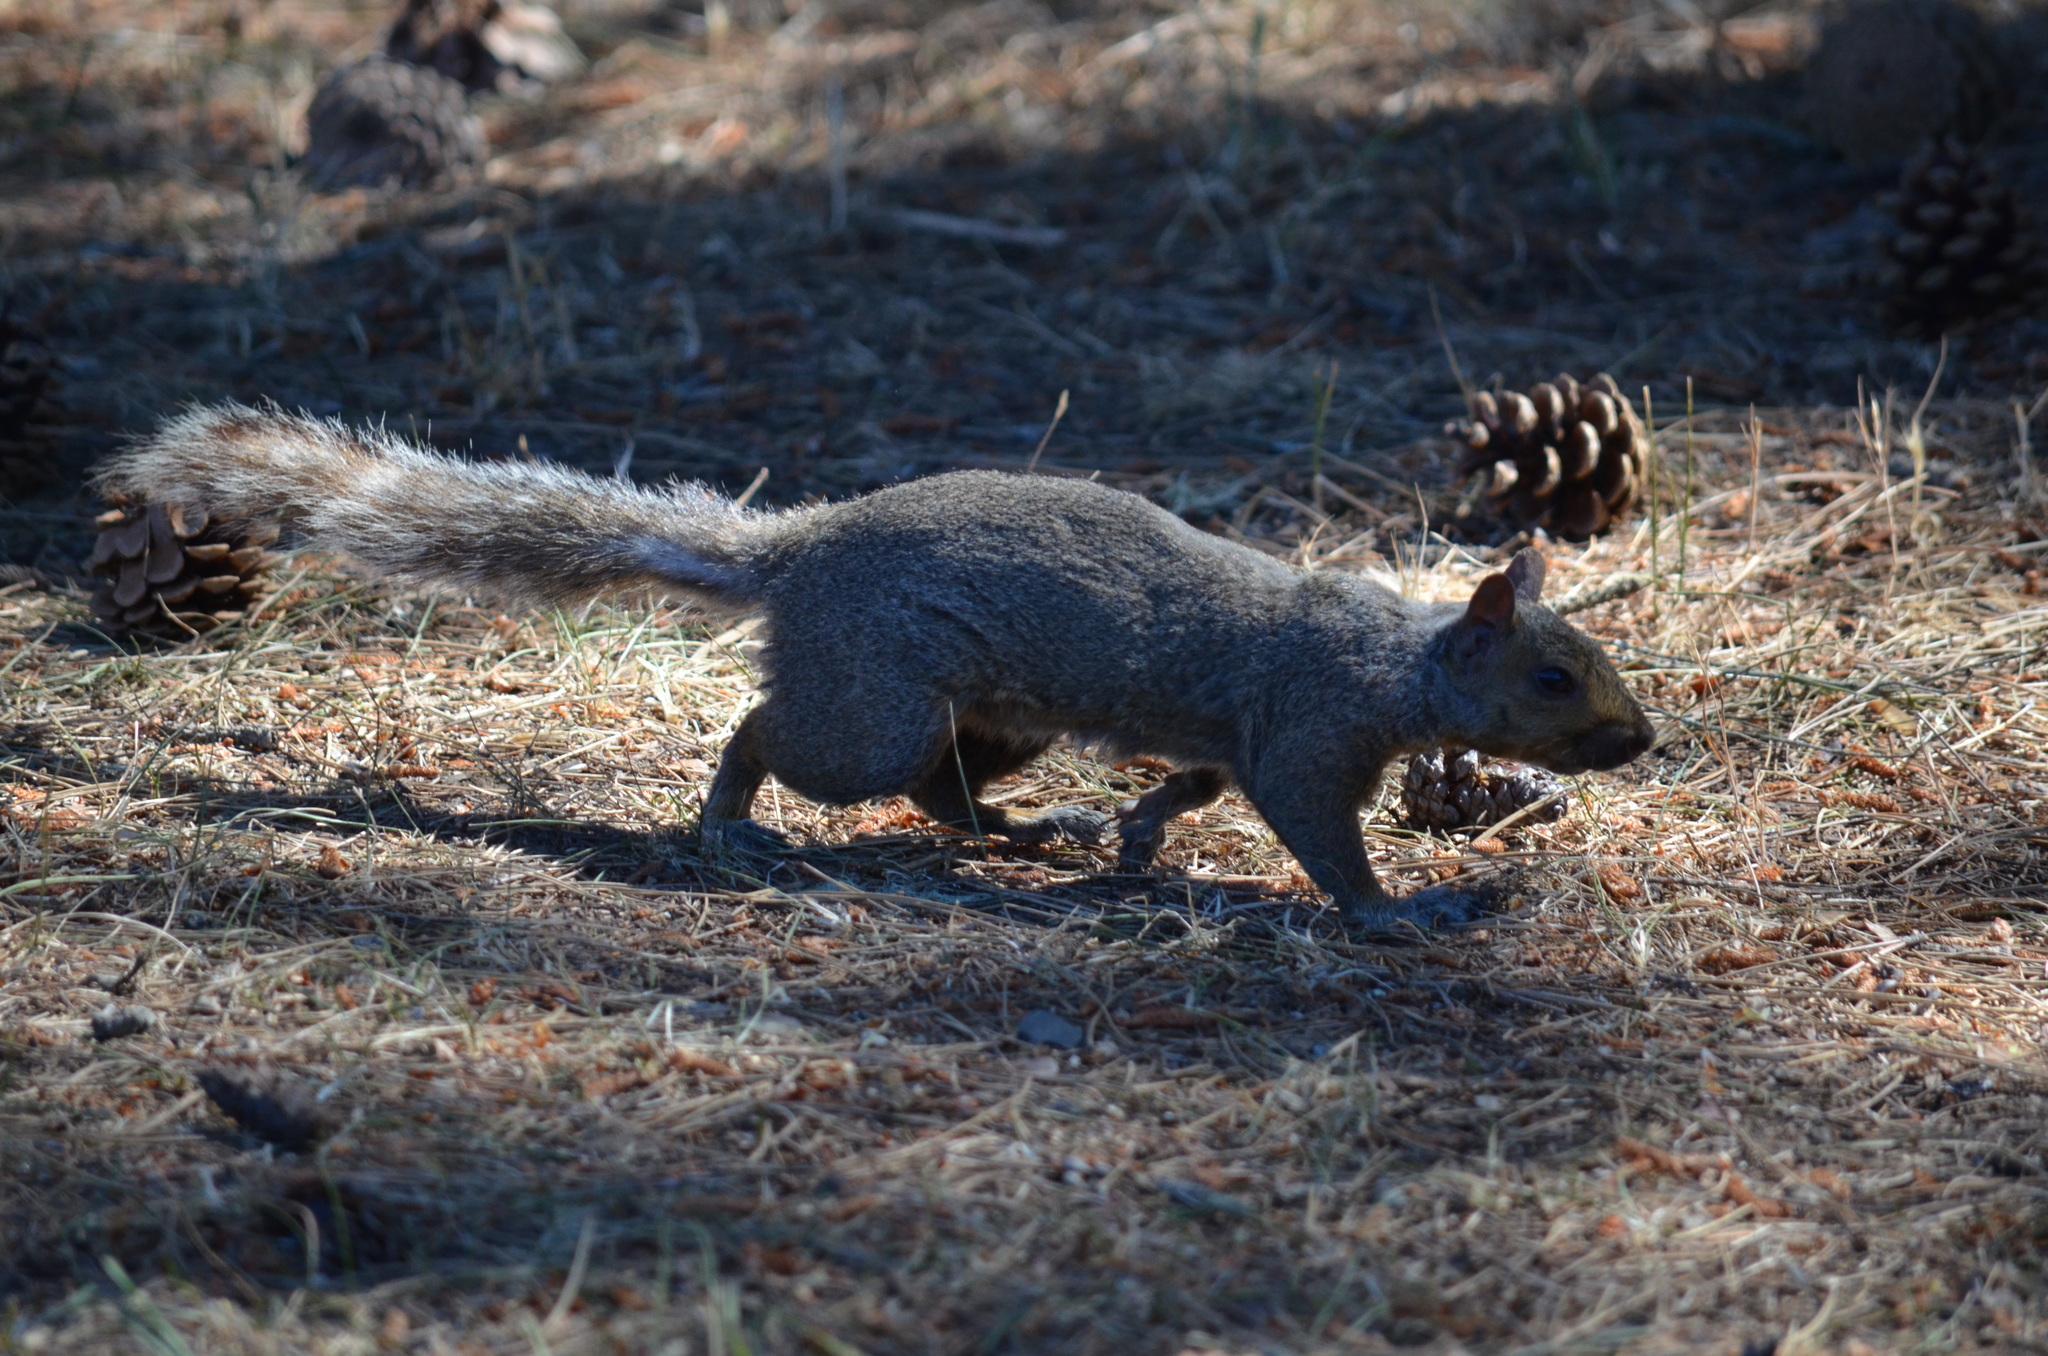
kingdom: Animalia
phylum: Chordata
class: Mammalia
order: Rodentia
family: Sciuridae
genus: Sciurus
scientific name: Sciurus carolinensis
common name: Eastern gray squirrel
